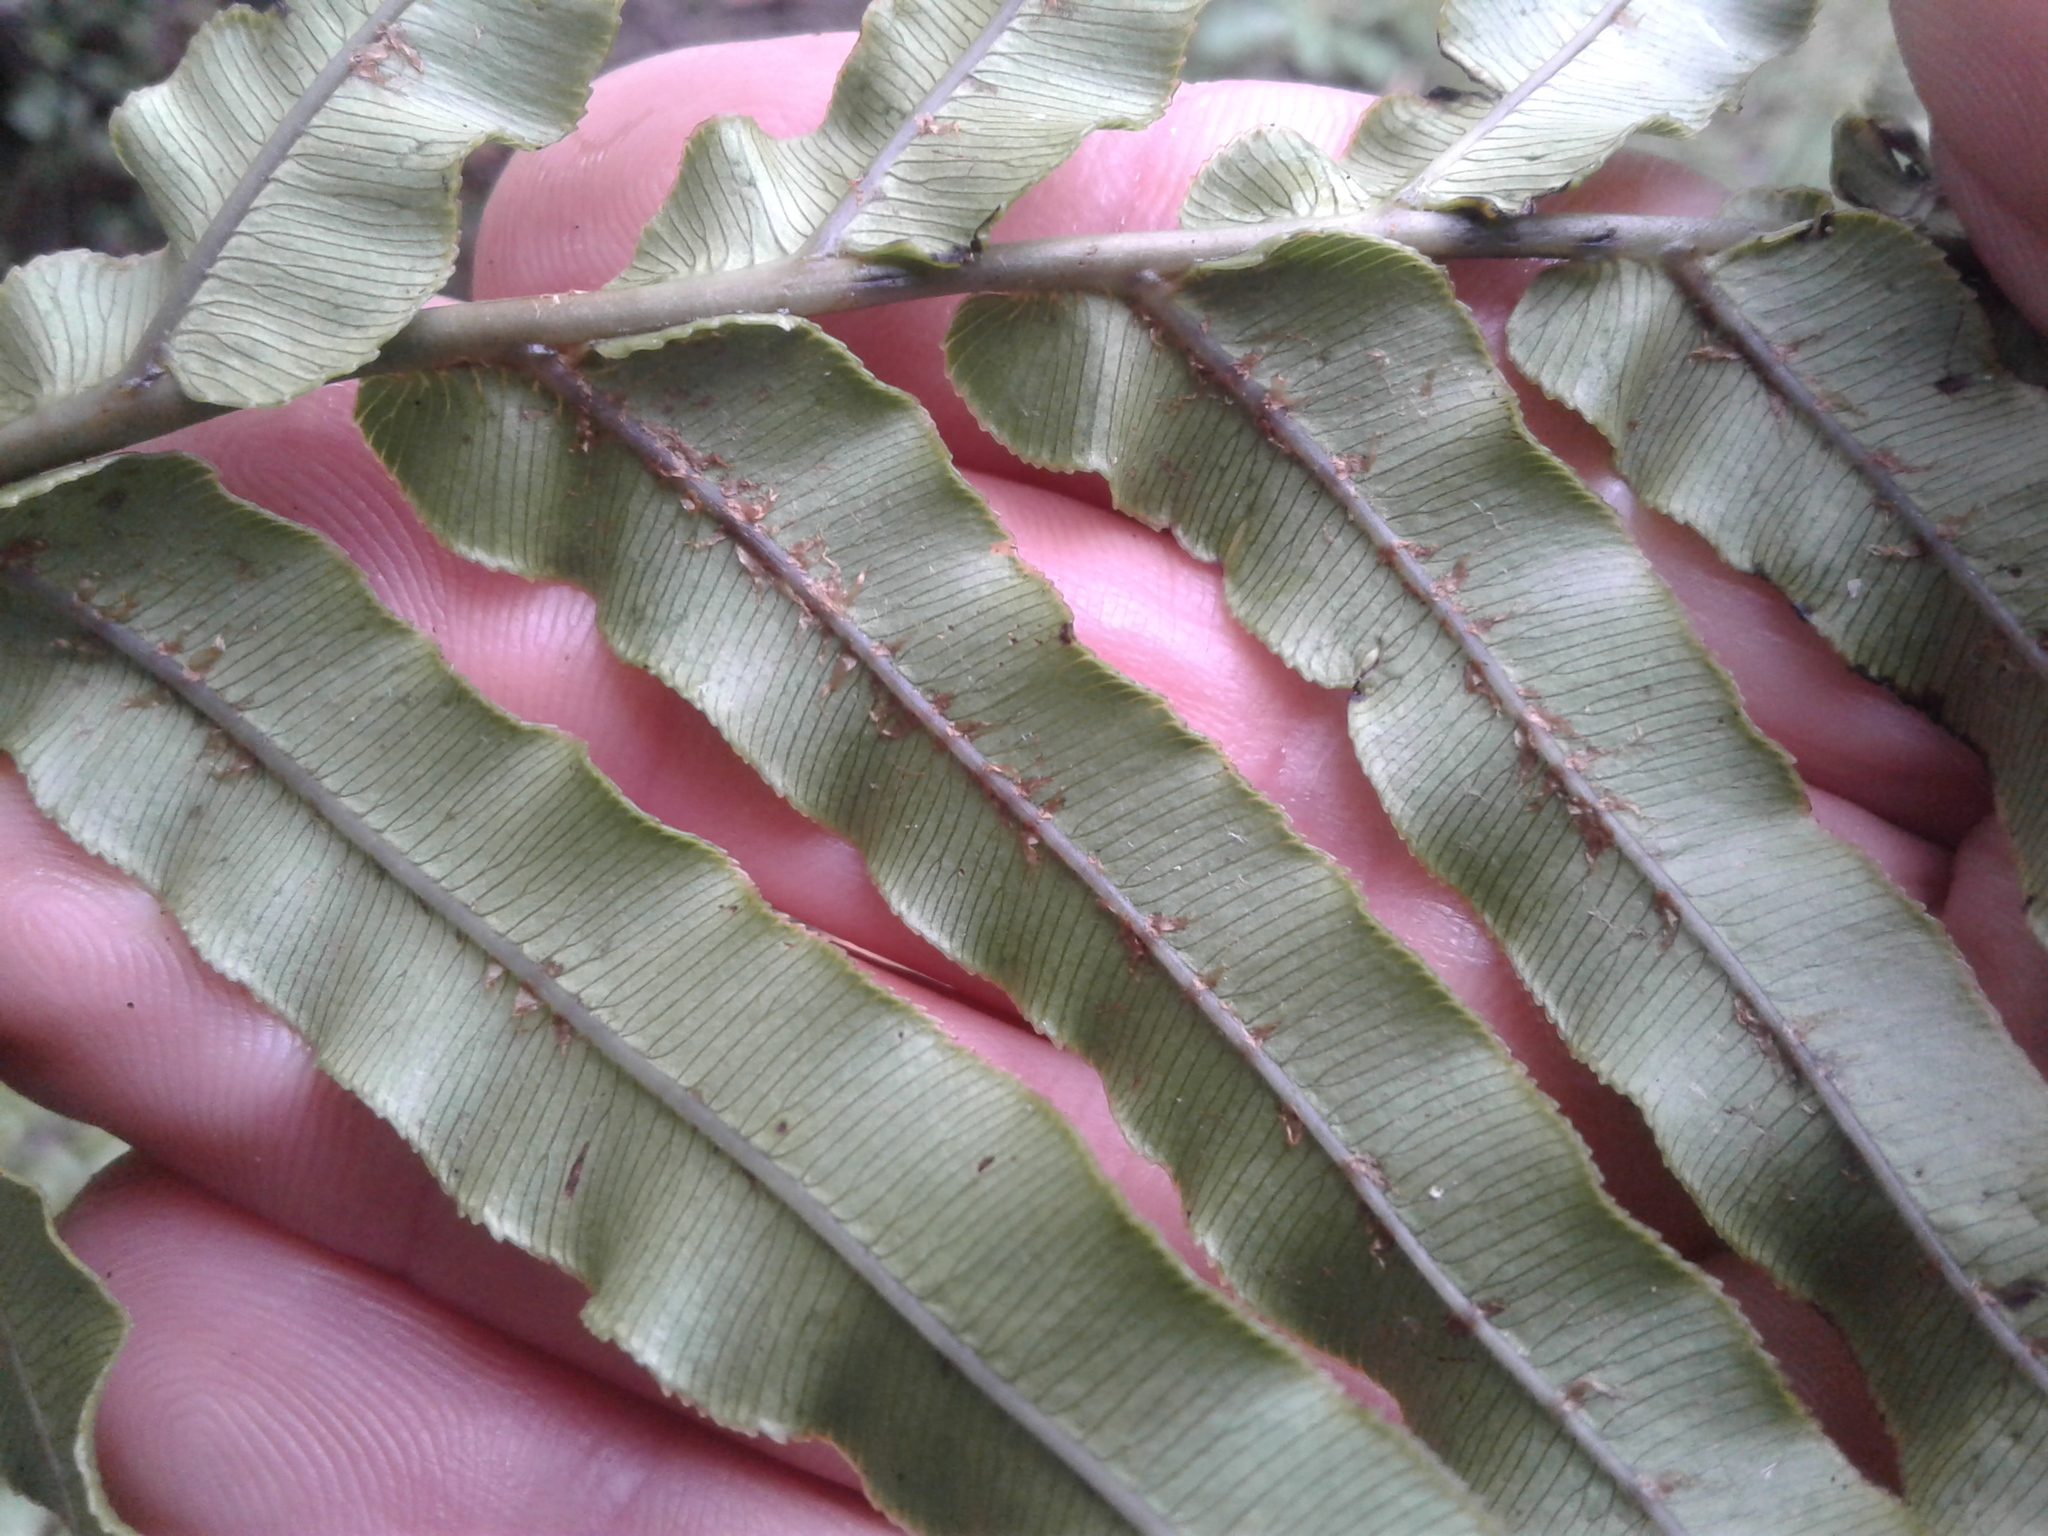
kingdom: Plantae
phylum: Tracheophyta
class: Polypodiopsida
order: Polypodiales
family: Blechnaceae
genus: Parablechnum
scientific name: Parablechnum minus
